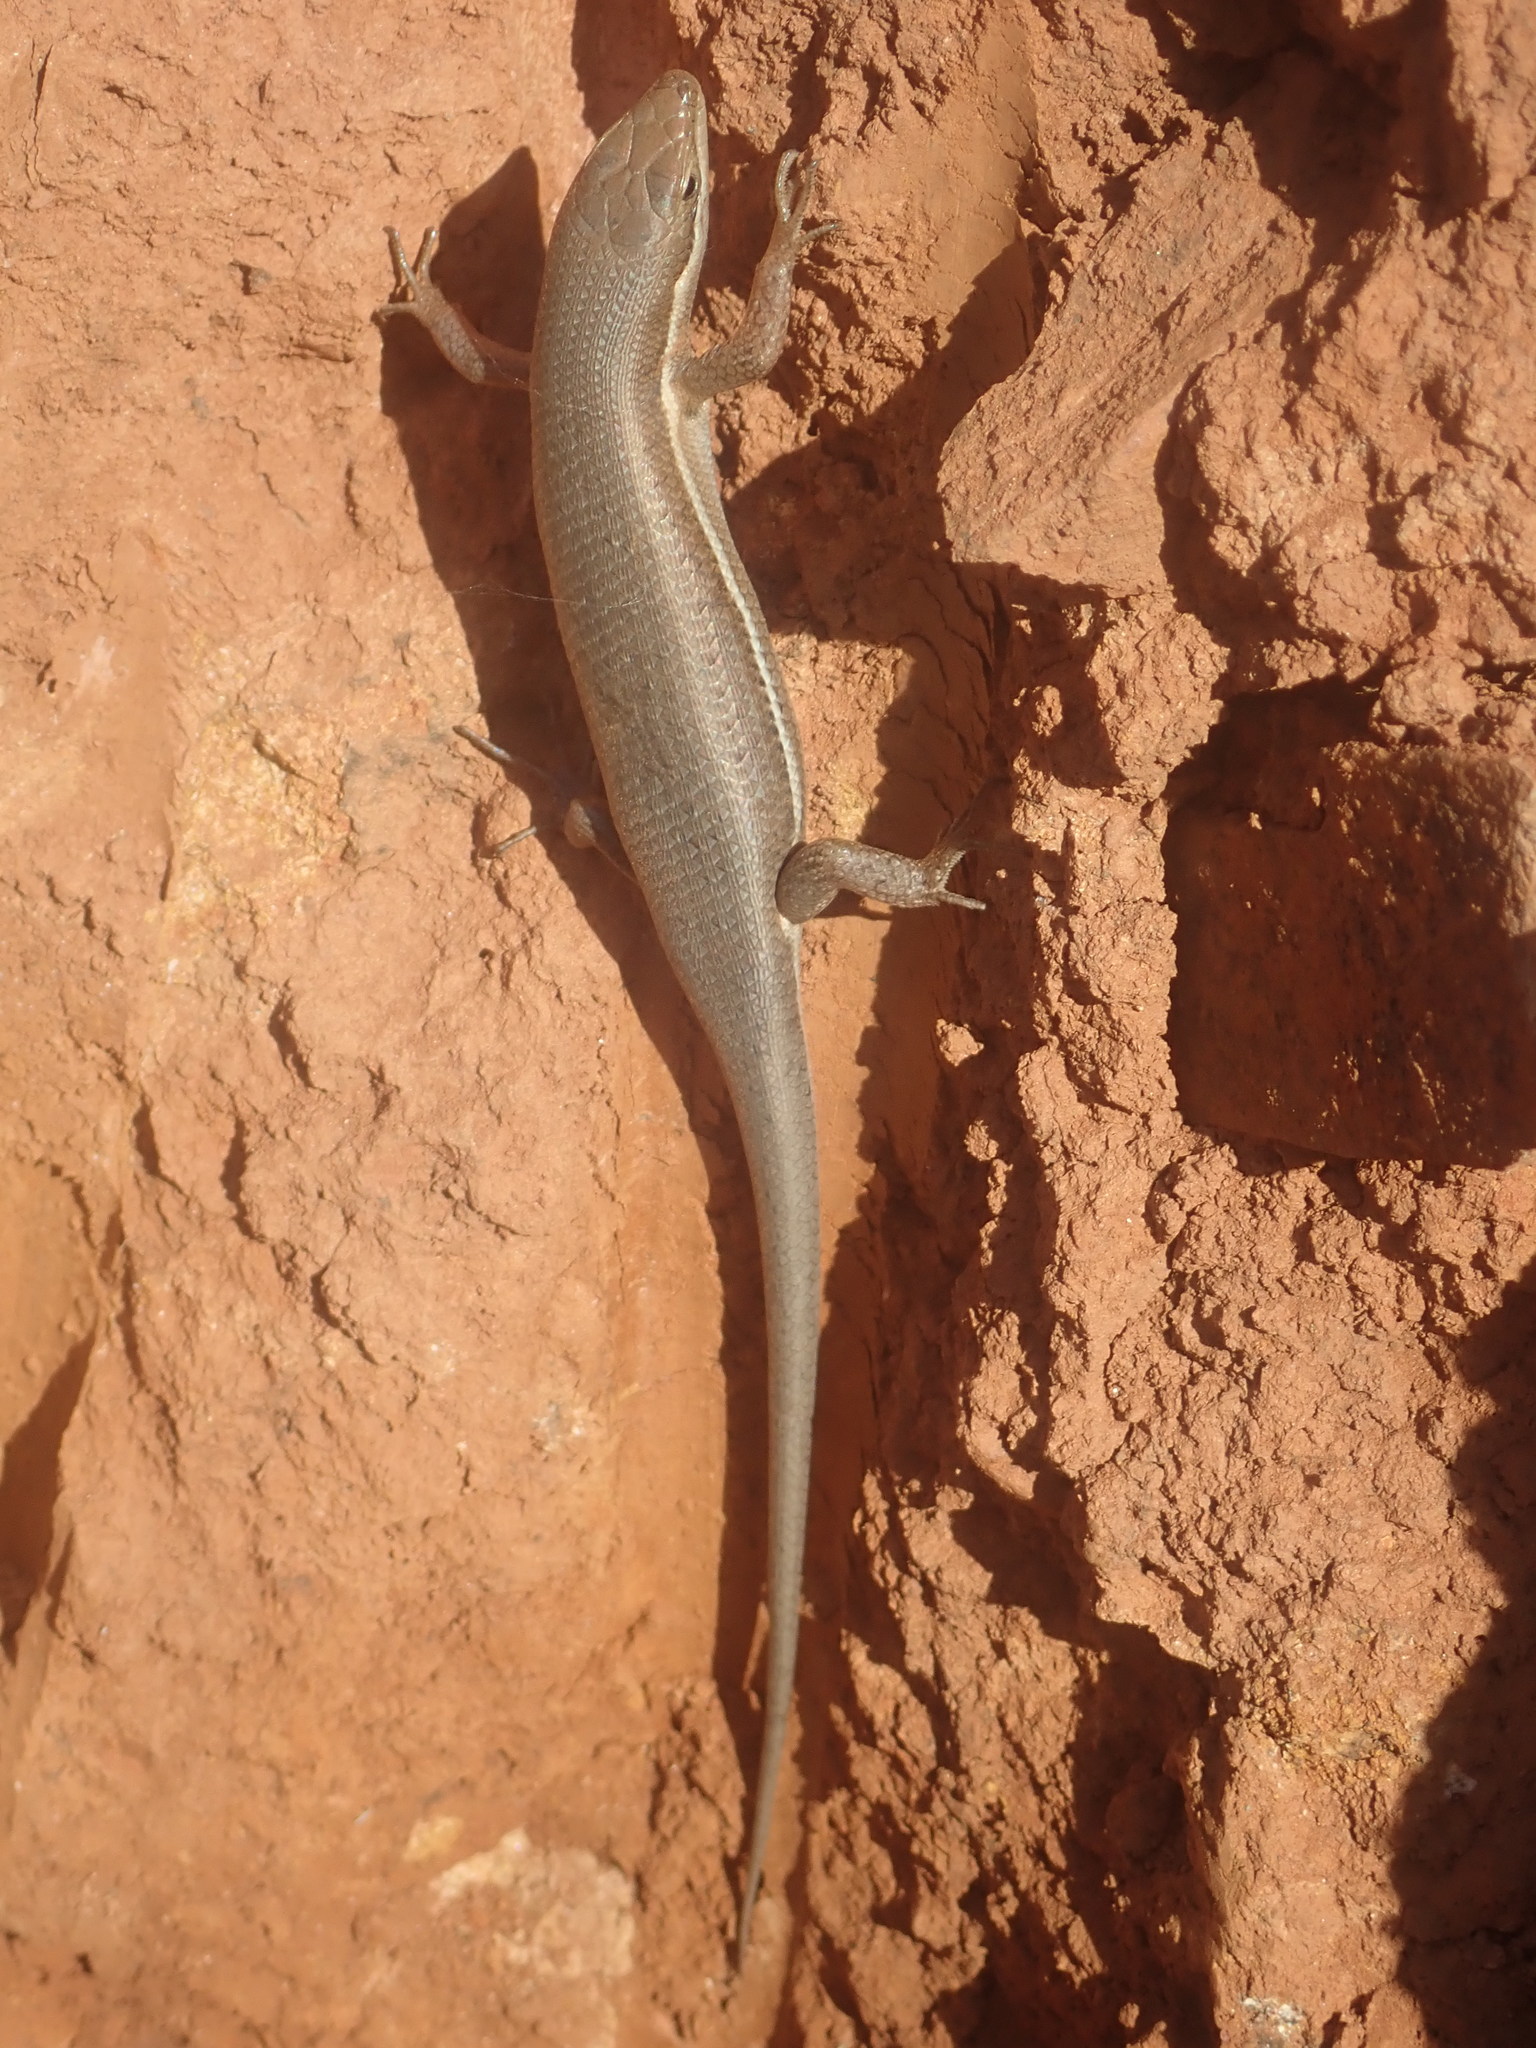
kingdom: Animalia
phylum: Chordata
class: Squamata
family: Scincidae
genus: Trachylepis
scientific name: Trachylepis varia
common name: Eastern variable skink
